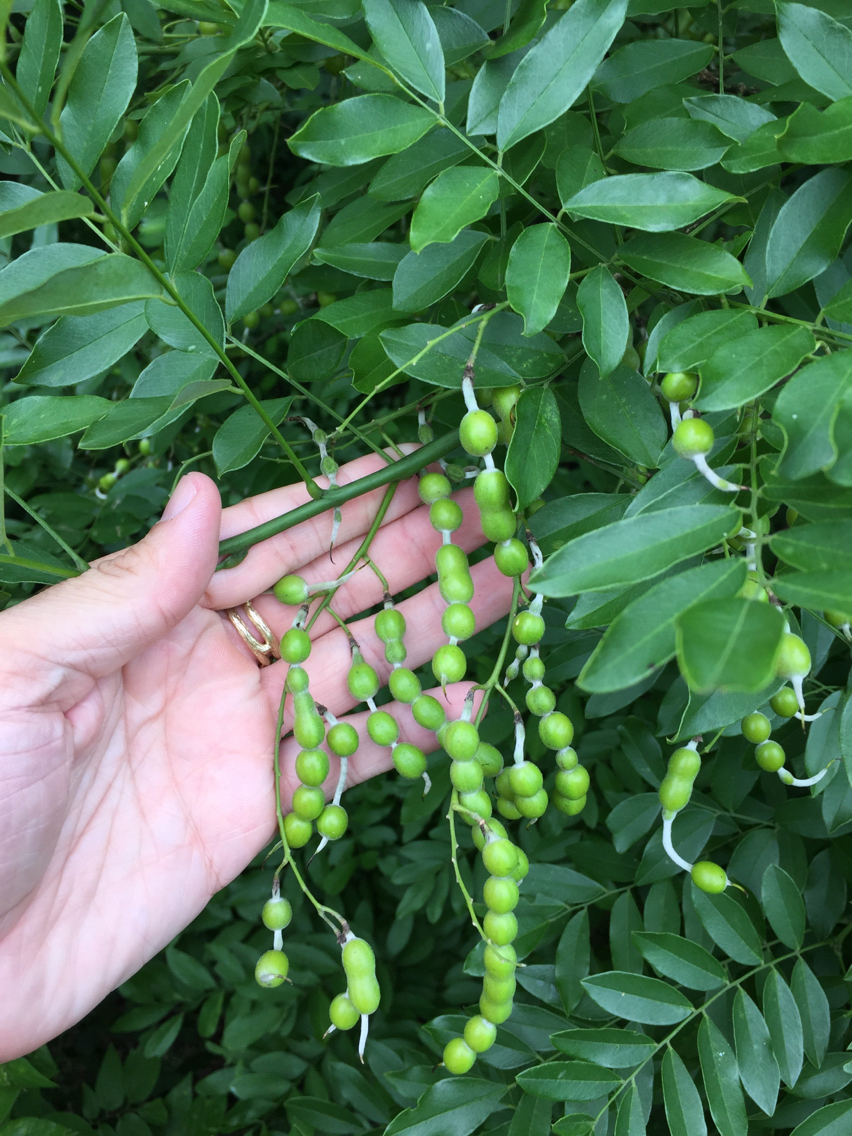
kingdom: Plantae
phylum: Tracheophyta
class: Magnoliopsida
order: Fabales
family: Fabaceae
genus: Styphnolobium
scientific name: Styphnolobium affine
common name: Texas sophora
